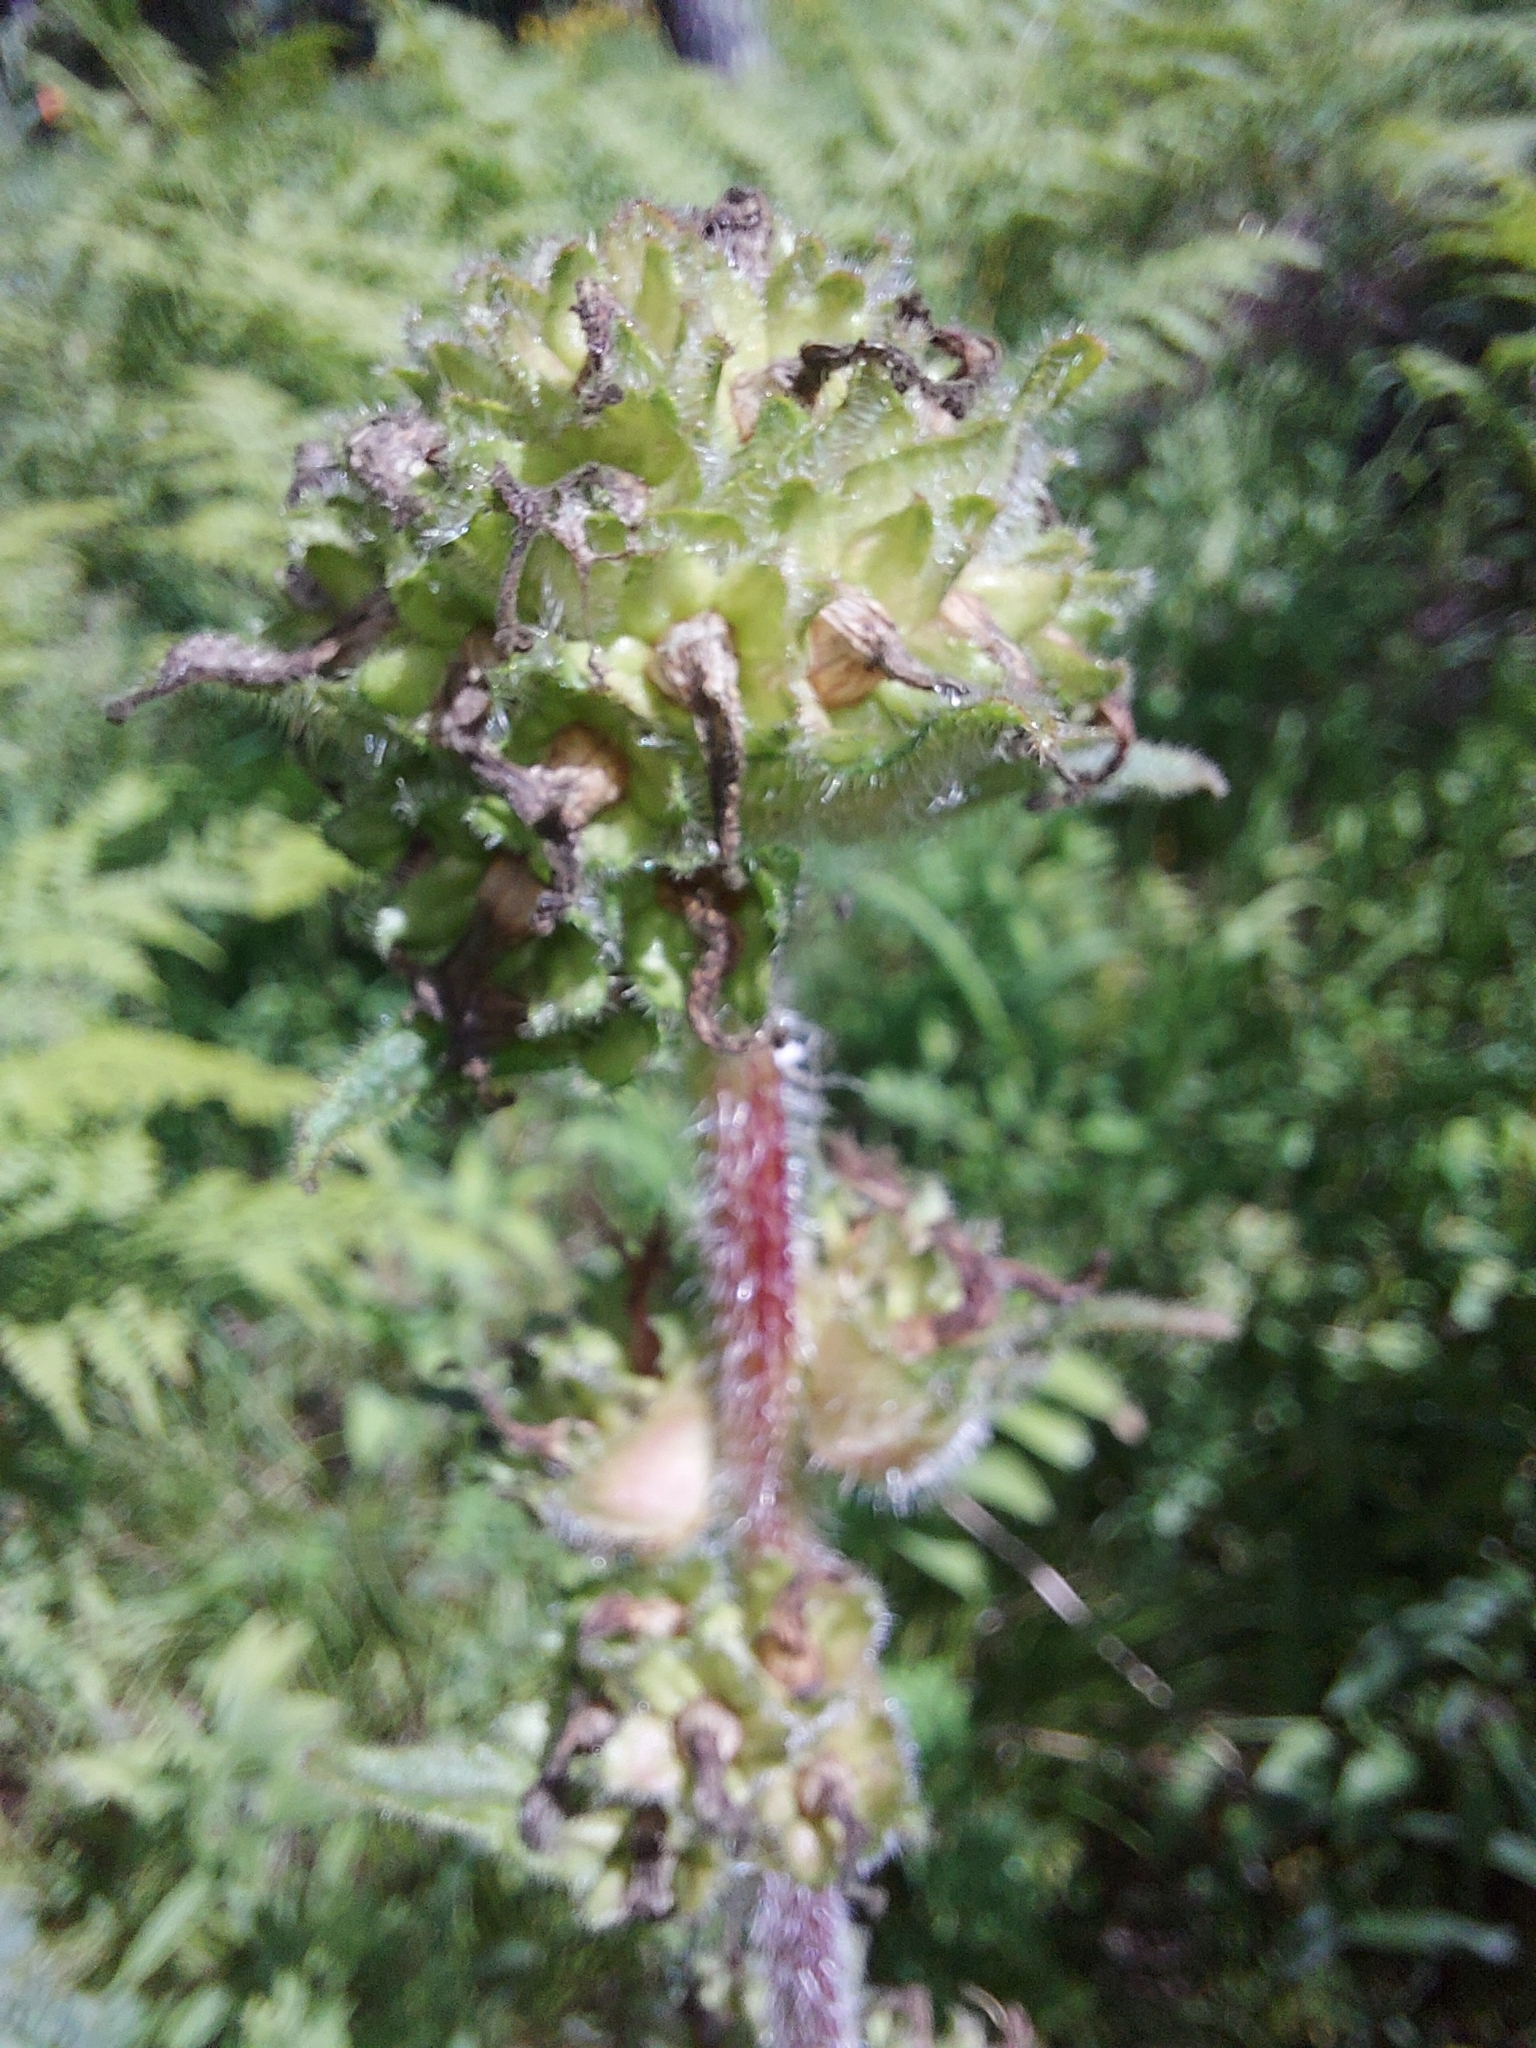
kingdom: Plantae
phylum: Tracheophyta
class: Magnoliopsida
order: Asterales
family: Campanulaceae
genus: Campanula
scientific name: Campanula cervicaria
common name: Bristly bellflower
